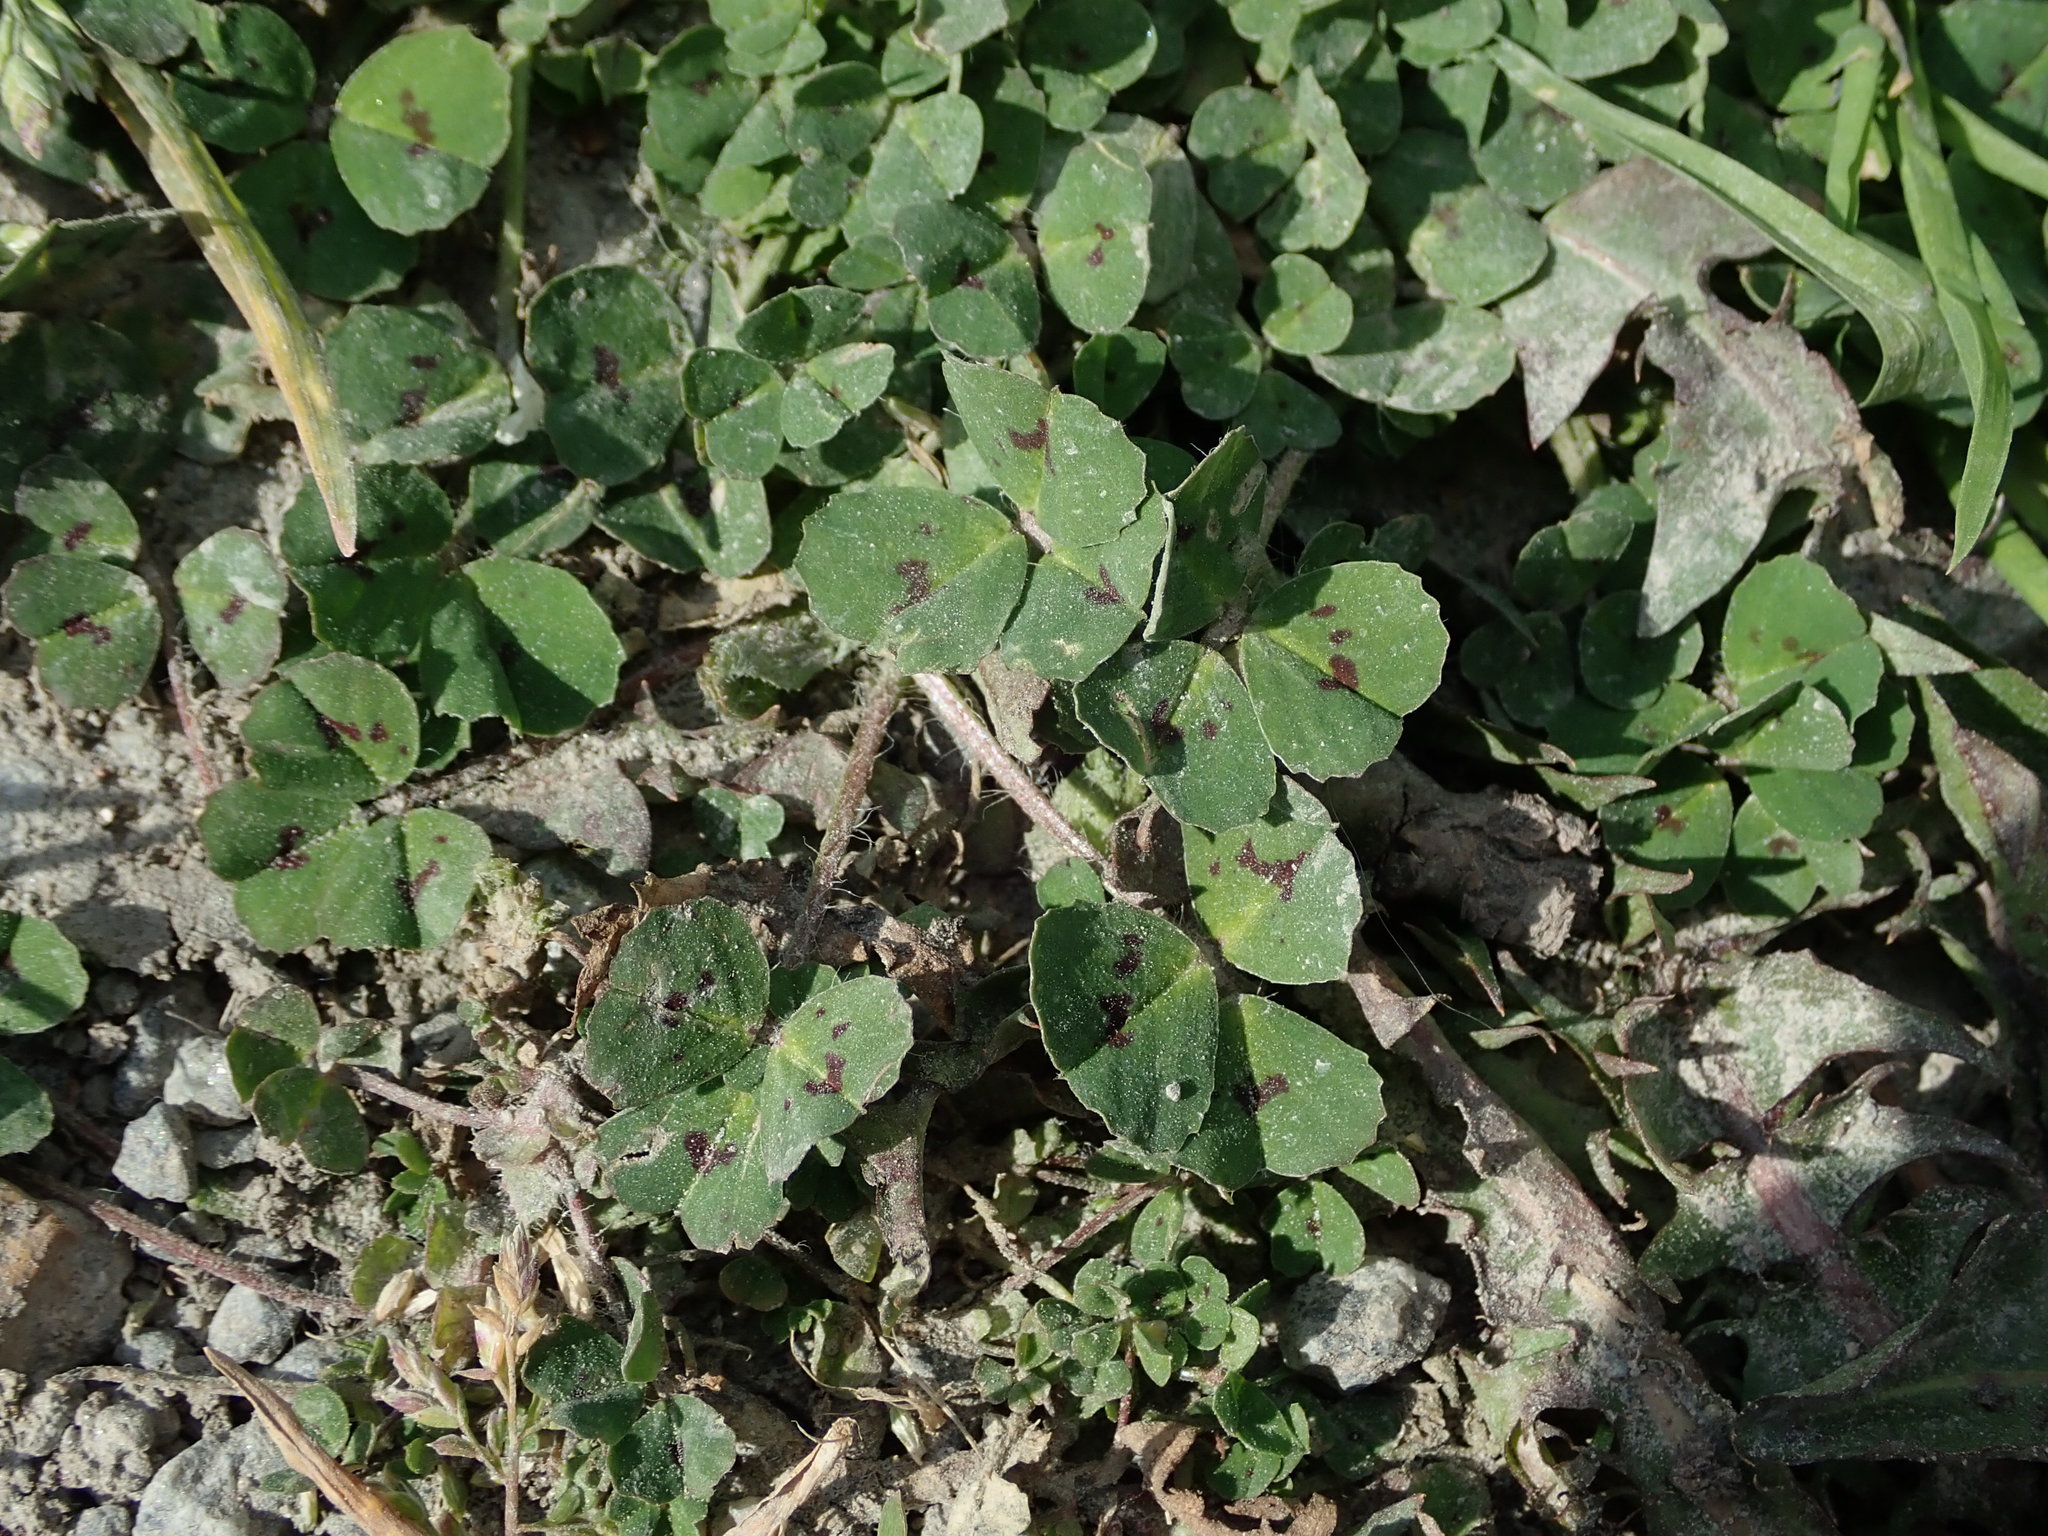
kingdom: Plantae
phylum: Tracheophyta
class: Magnoliopsida
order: Fabales
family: Fabaceae
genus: Medicago
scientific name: Medicago arabica
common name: Spotted medick
